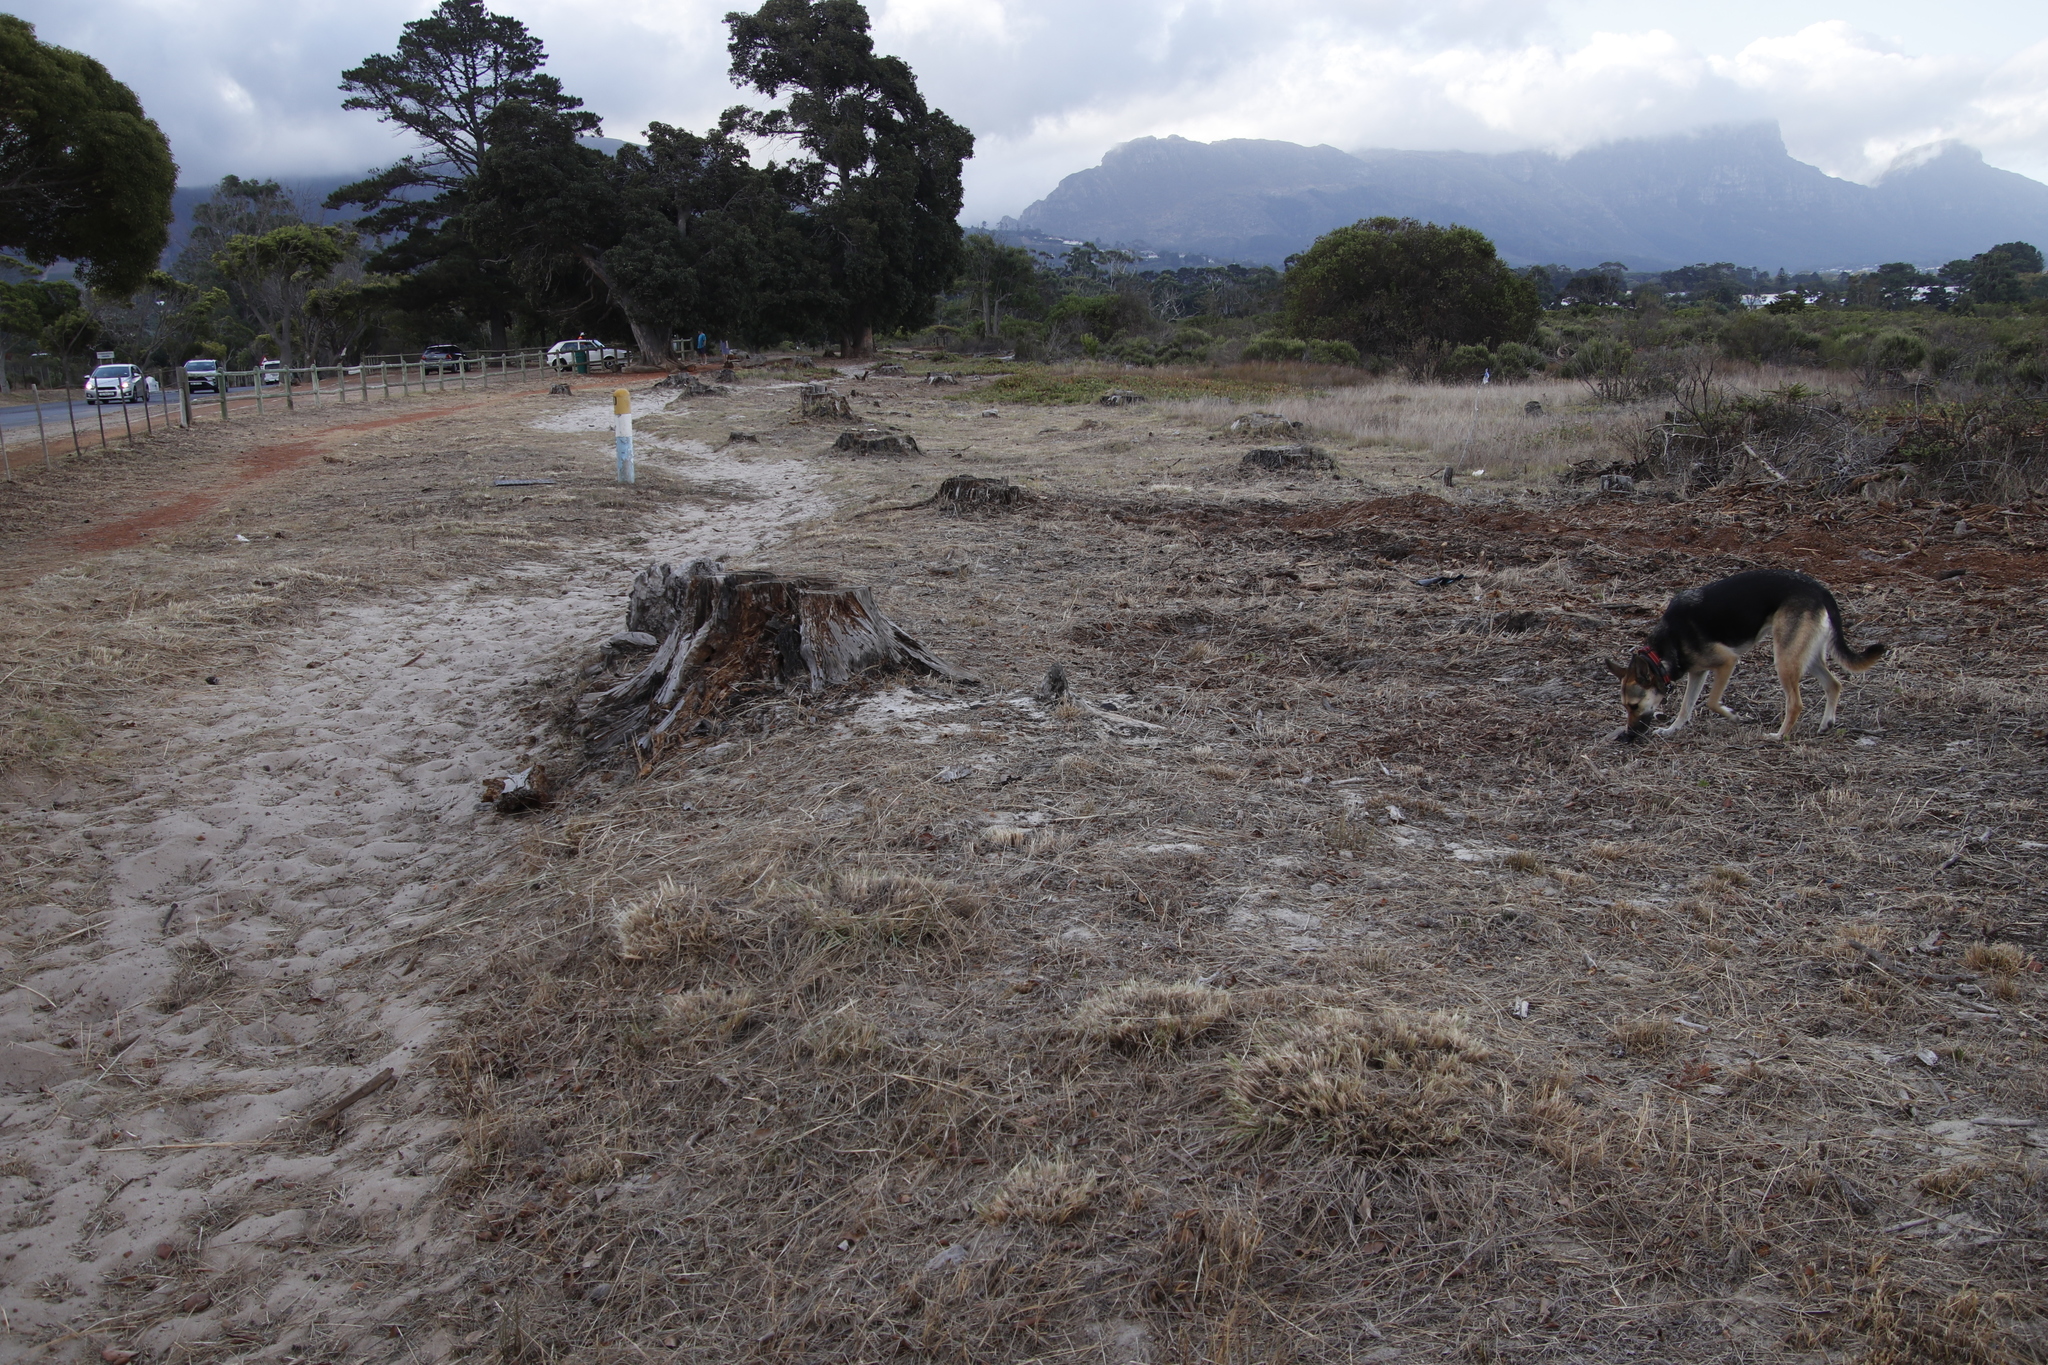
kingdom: Plantae
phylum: Tracheophyta
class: Magnoliopsida
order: Caryophyllales
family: Aizoaceae
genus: Carpobrotus
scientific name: Carpobrotus edulis
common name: Hottentot-fig
